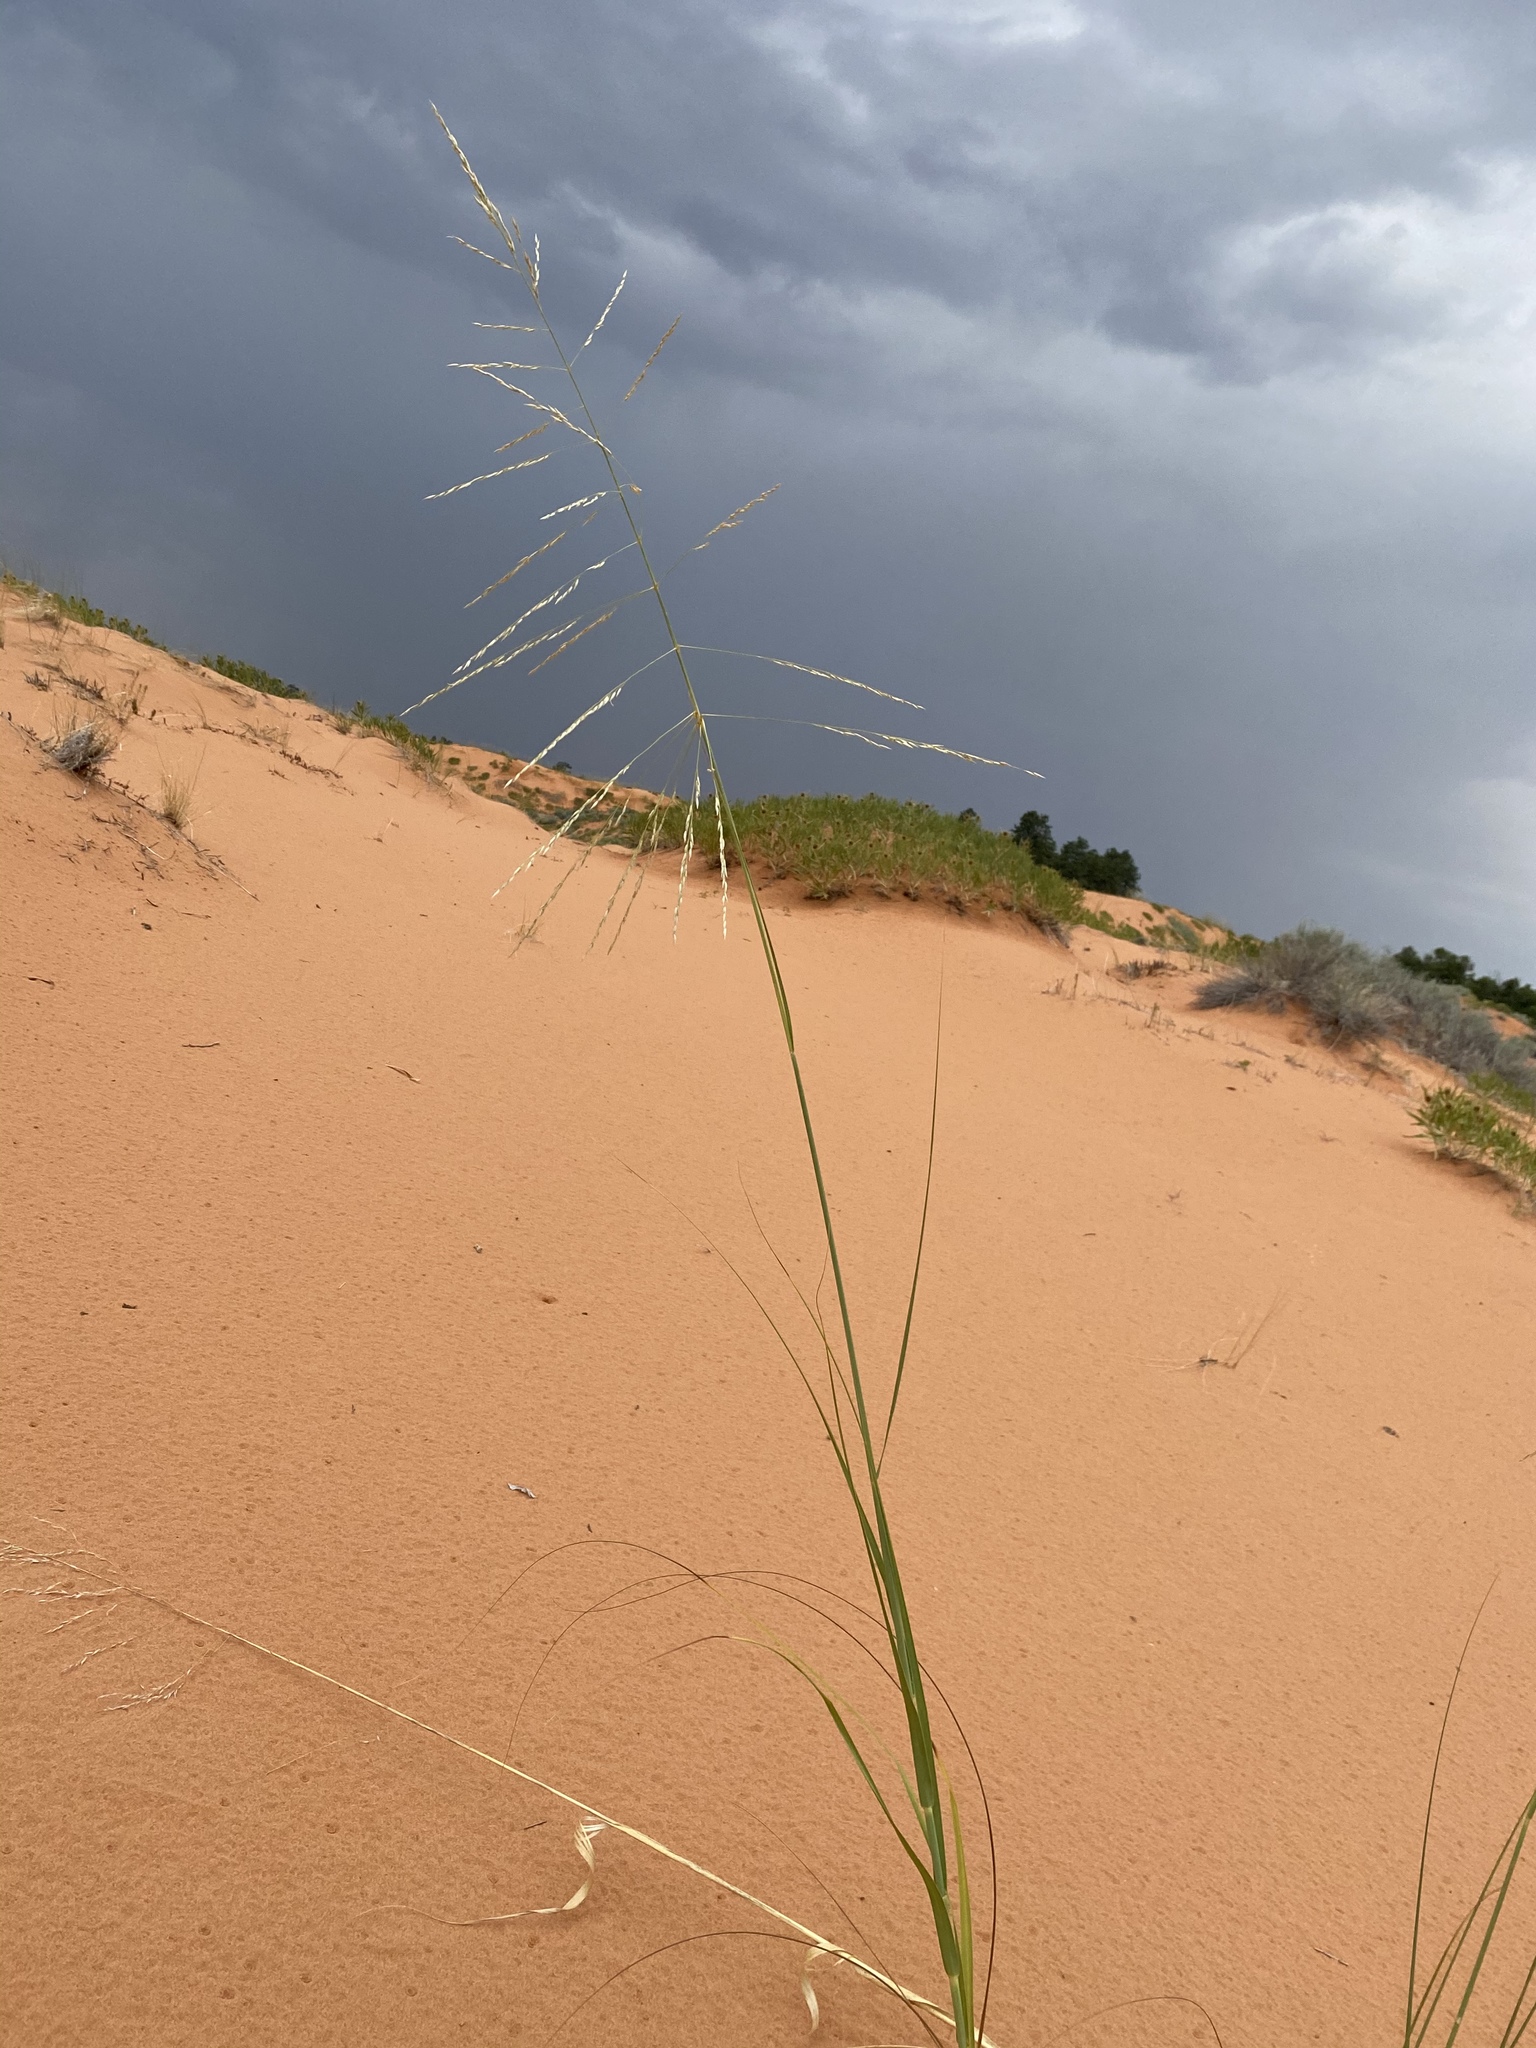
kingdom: Plantae
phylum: Tracheophyta
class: Liliopsida
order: Poales
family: Poaceae
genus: Sporobolus
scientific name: Sporobolus arenicola
